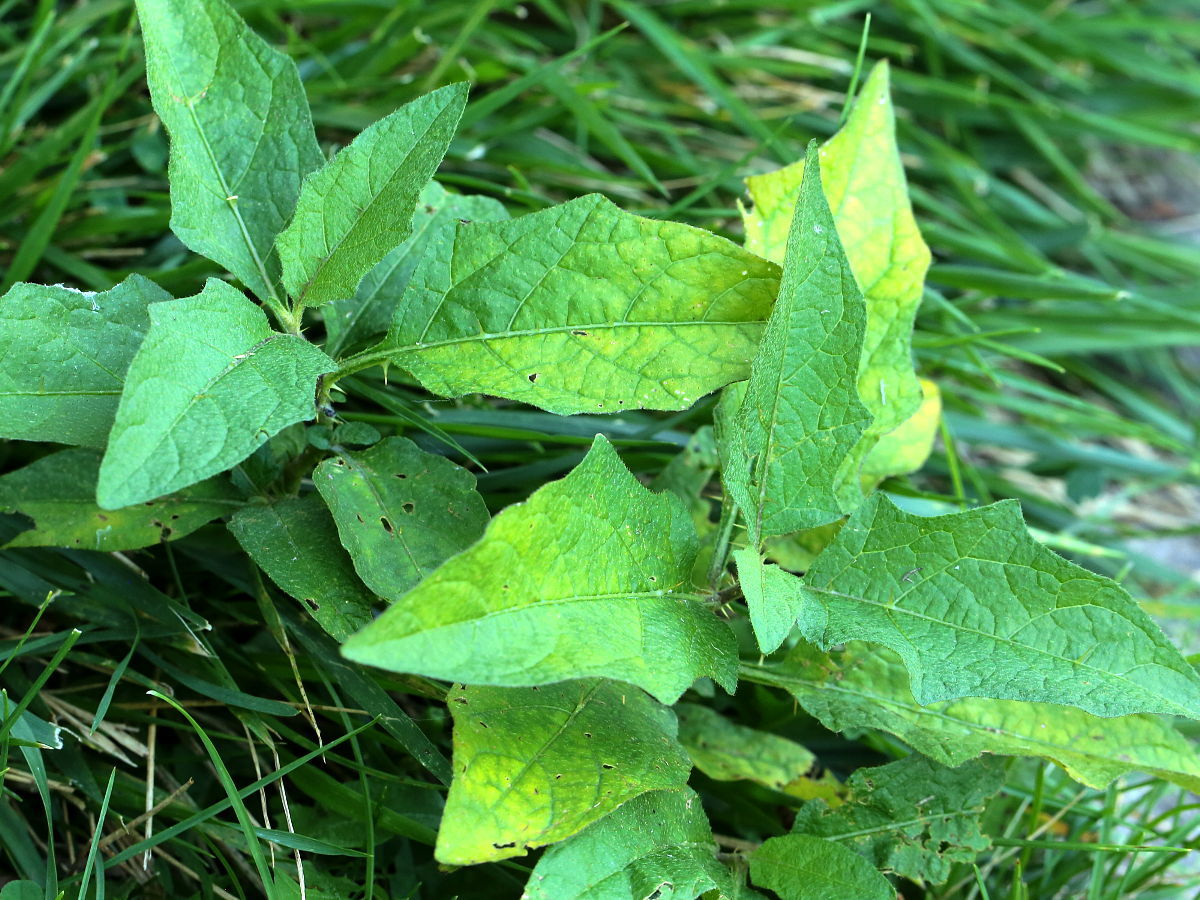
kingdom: Plantae
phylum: Tracheophyta
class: Magnoliopsida
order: Solanales
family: Solanaceae
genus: Solanum
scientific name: Solanum carolinense
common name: Horse-nettle
